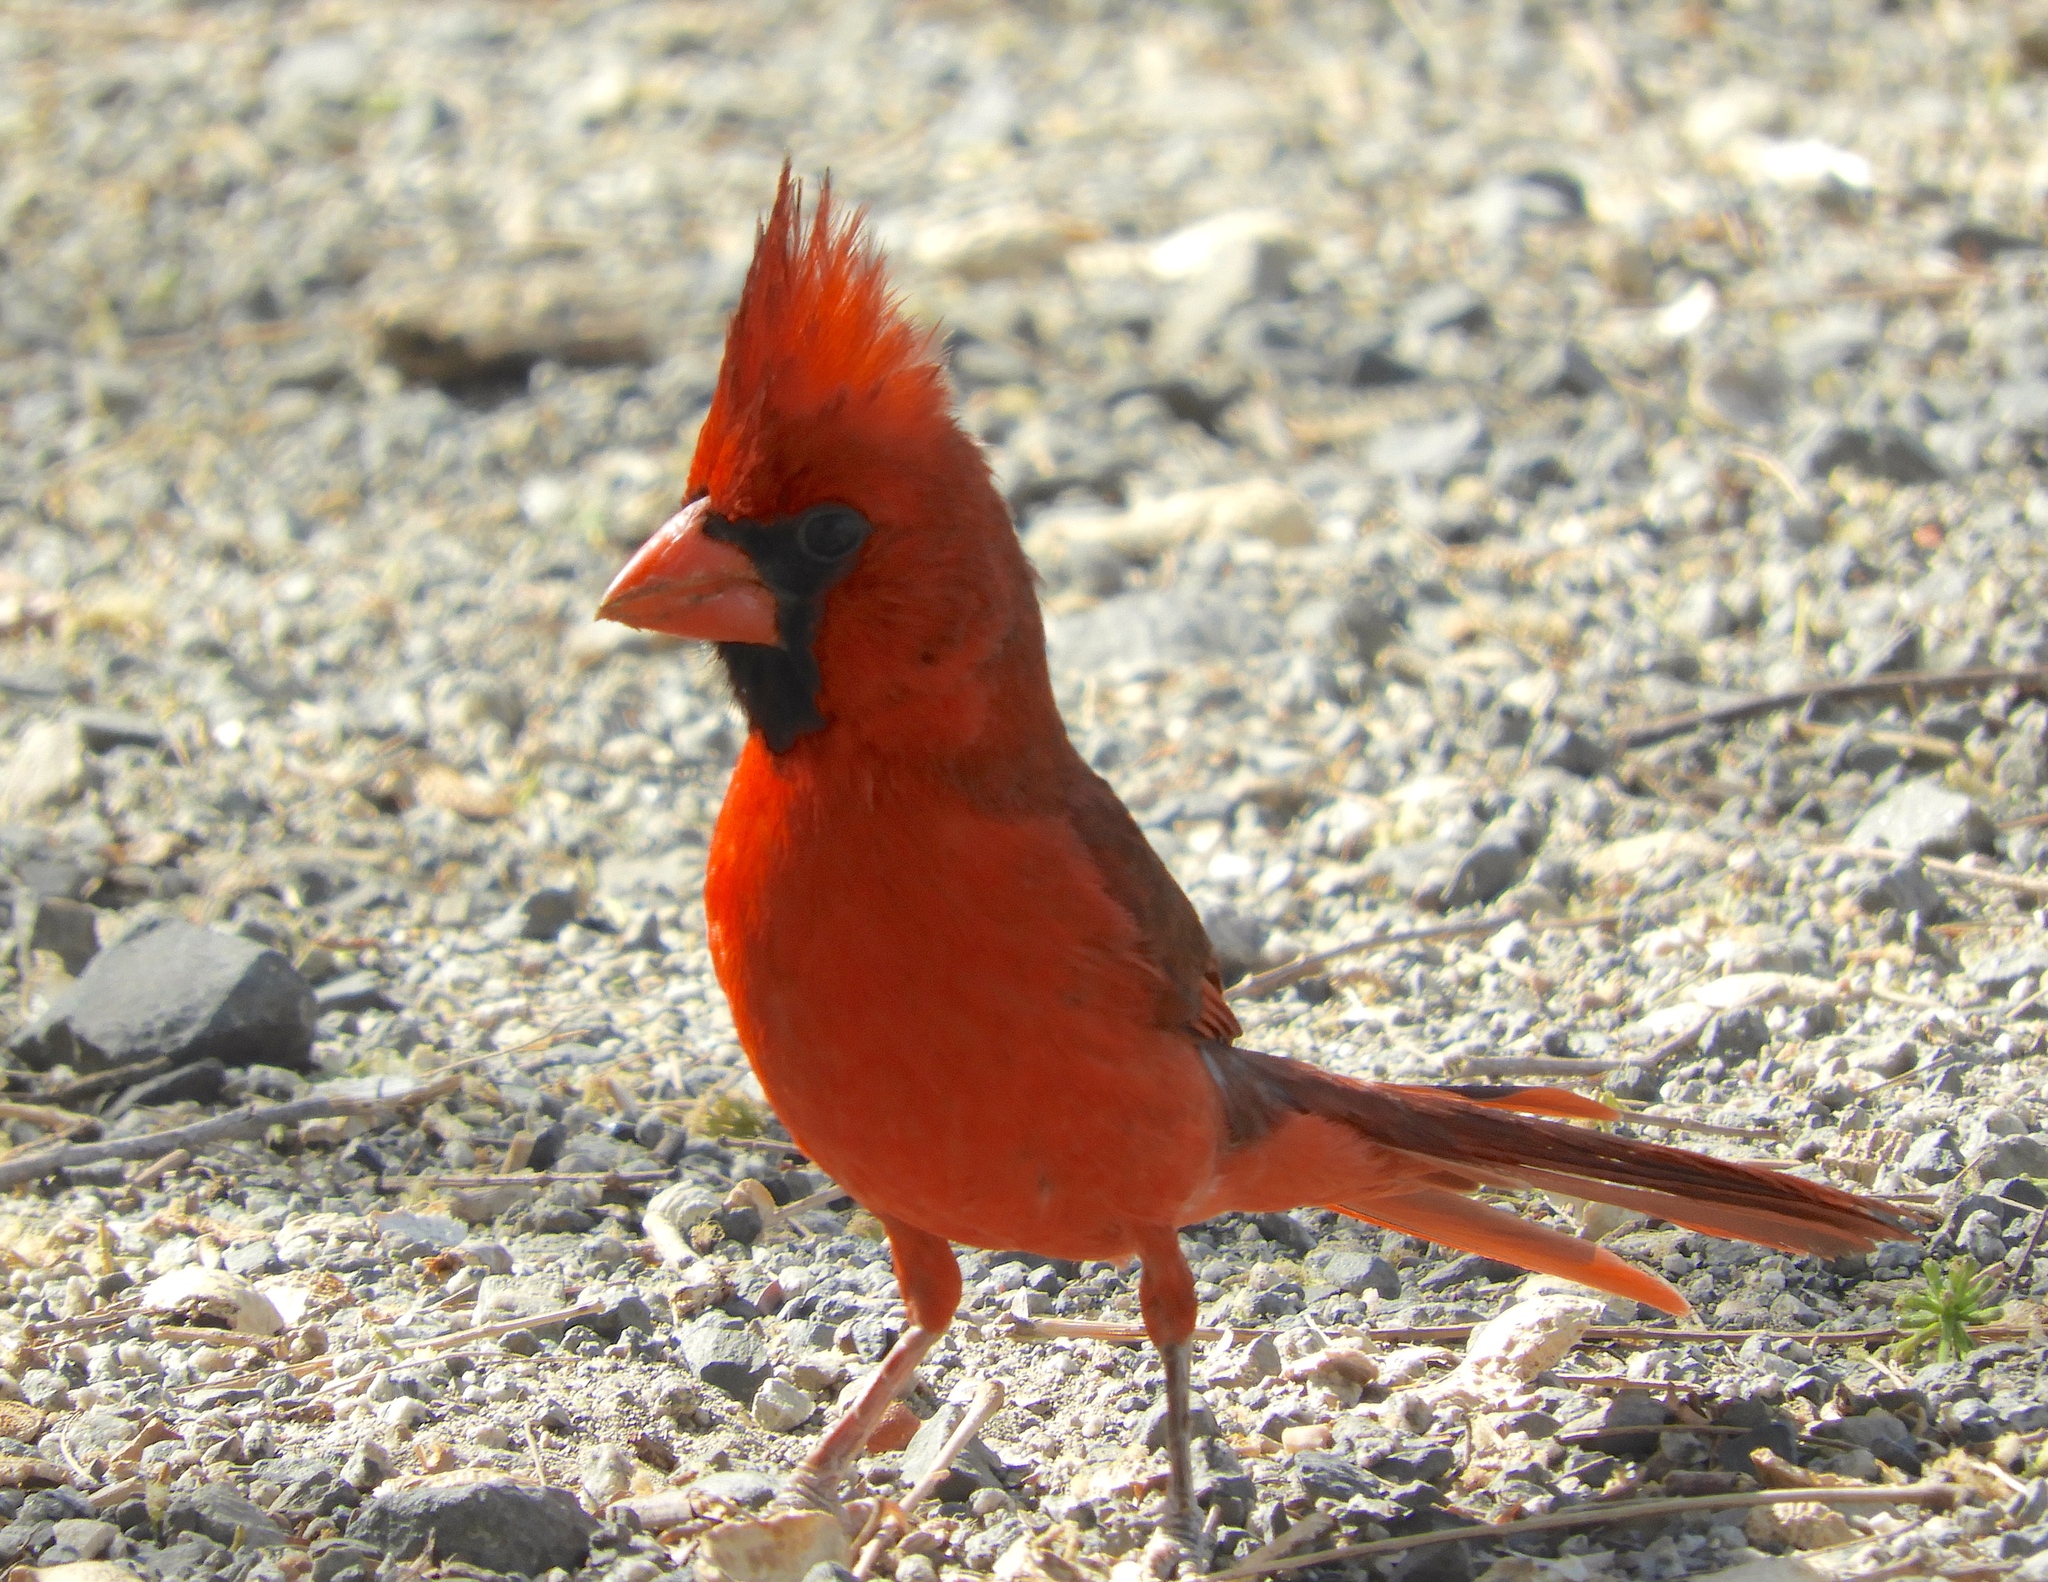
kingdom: Animalia
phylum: Chordata
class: Aves
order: Passeriformes
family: Cardinalidae
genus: Cardinalis
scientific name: Cardinalis cardinalis
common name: Northern cardinal
